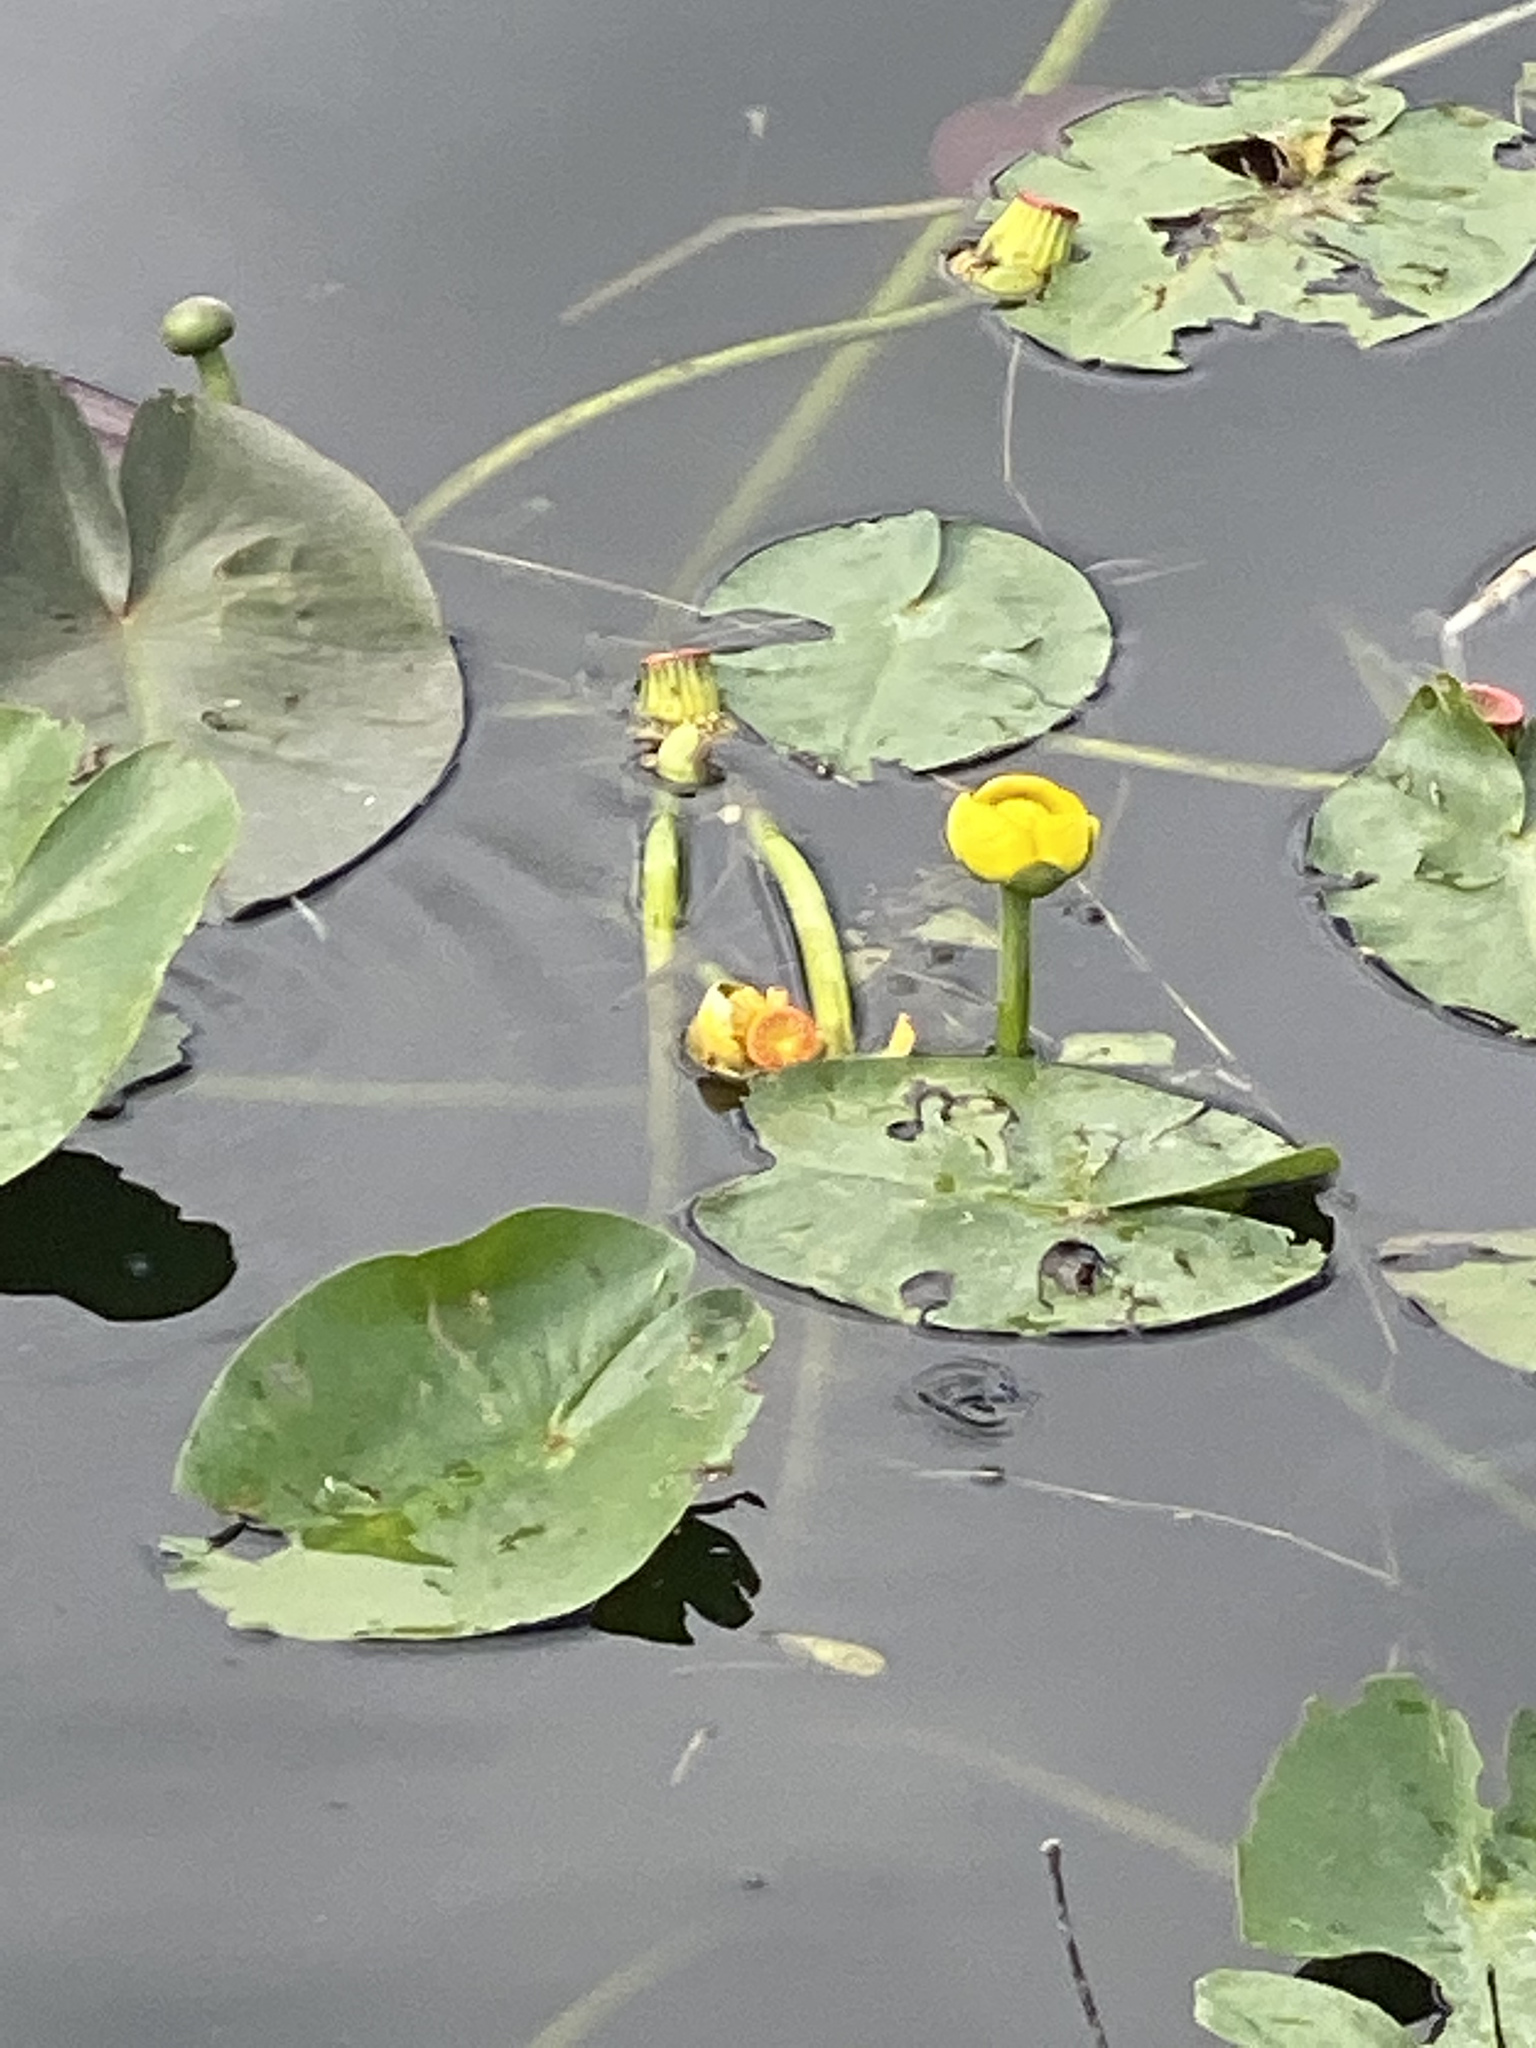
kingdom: Plantae
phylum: Tracheophyta
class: Magnoliopsida
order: Nymphaeales
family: Nymphaeaceae
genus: Nuphar
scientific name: Nuphar advena
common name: Spatter-dock
